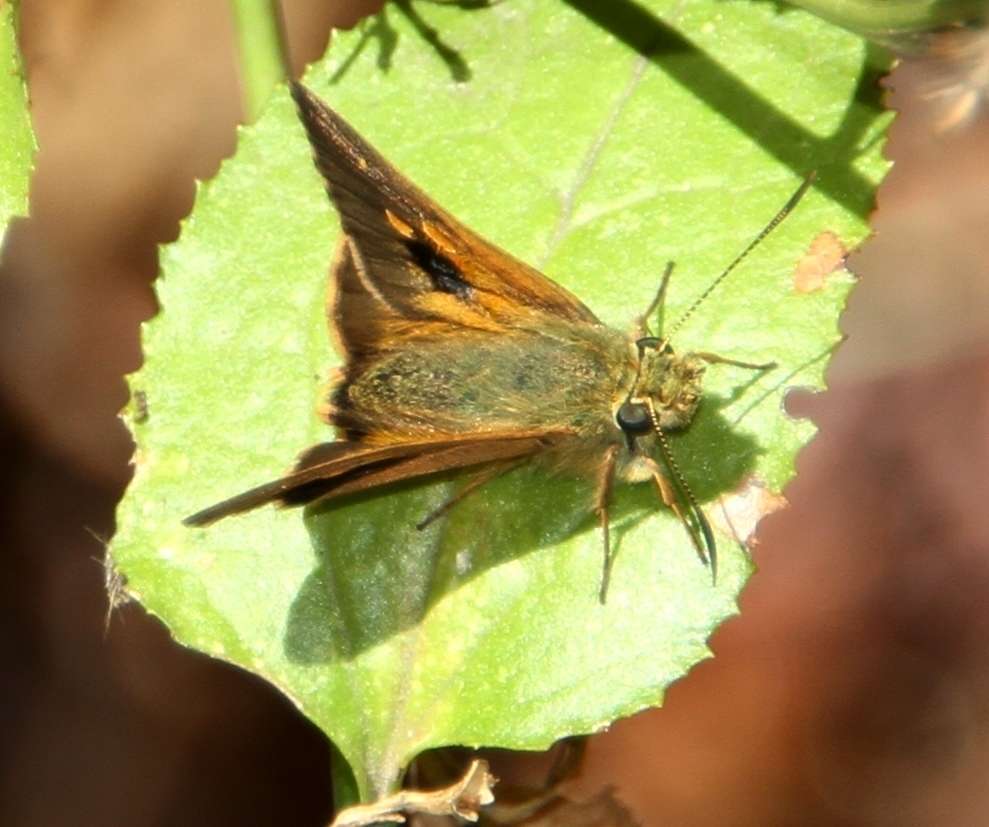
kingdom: Animalia
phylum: Arthropoda
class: Insecta
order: Lepidoptera
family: Hesperiidae
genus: Toxidia
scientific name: Toxidia
